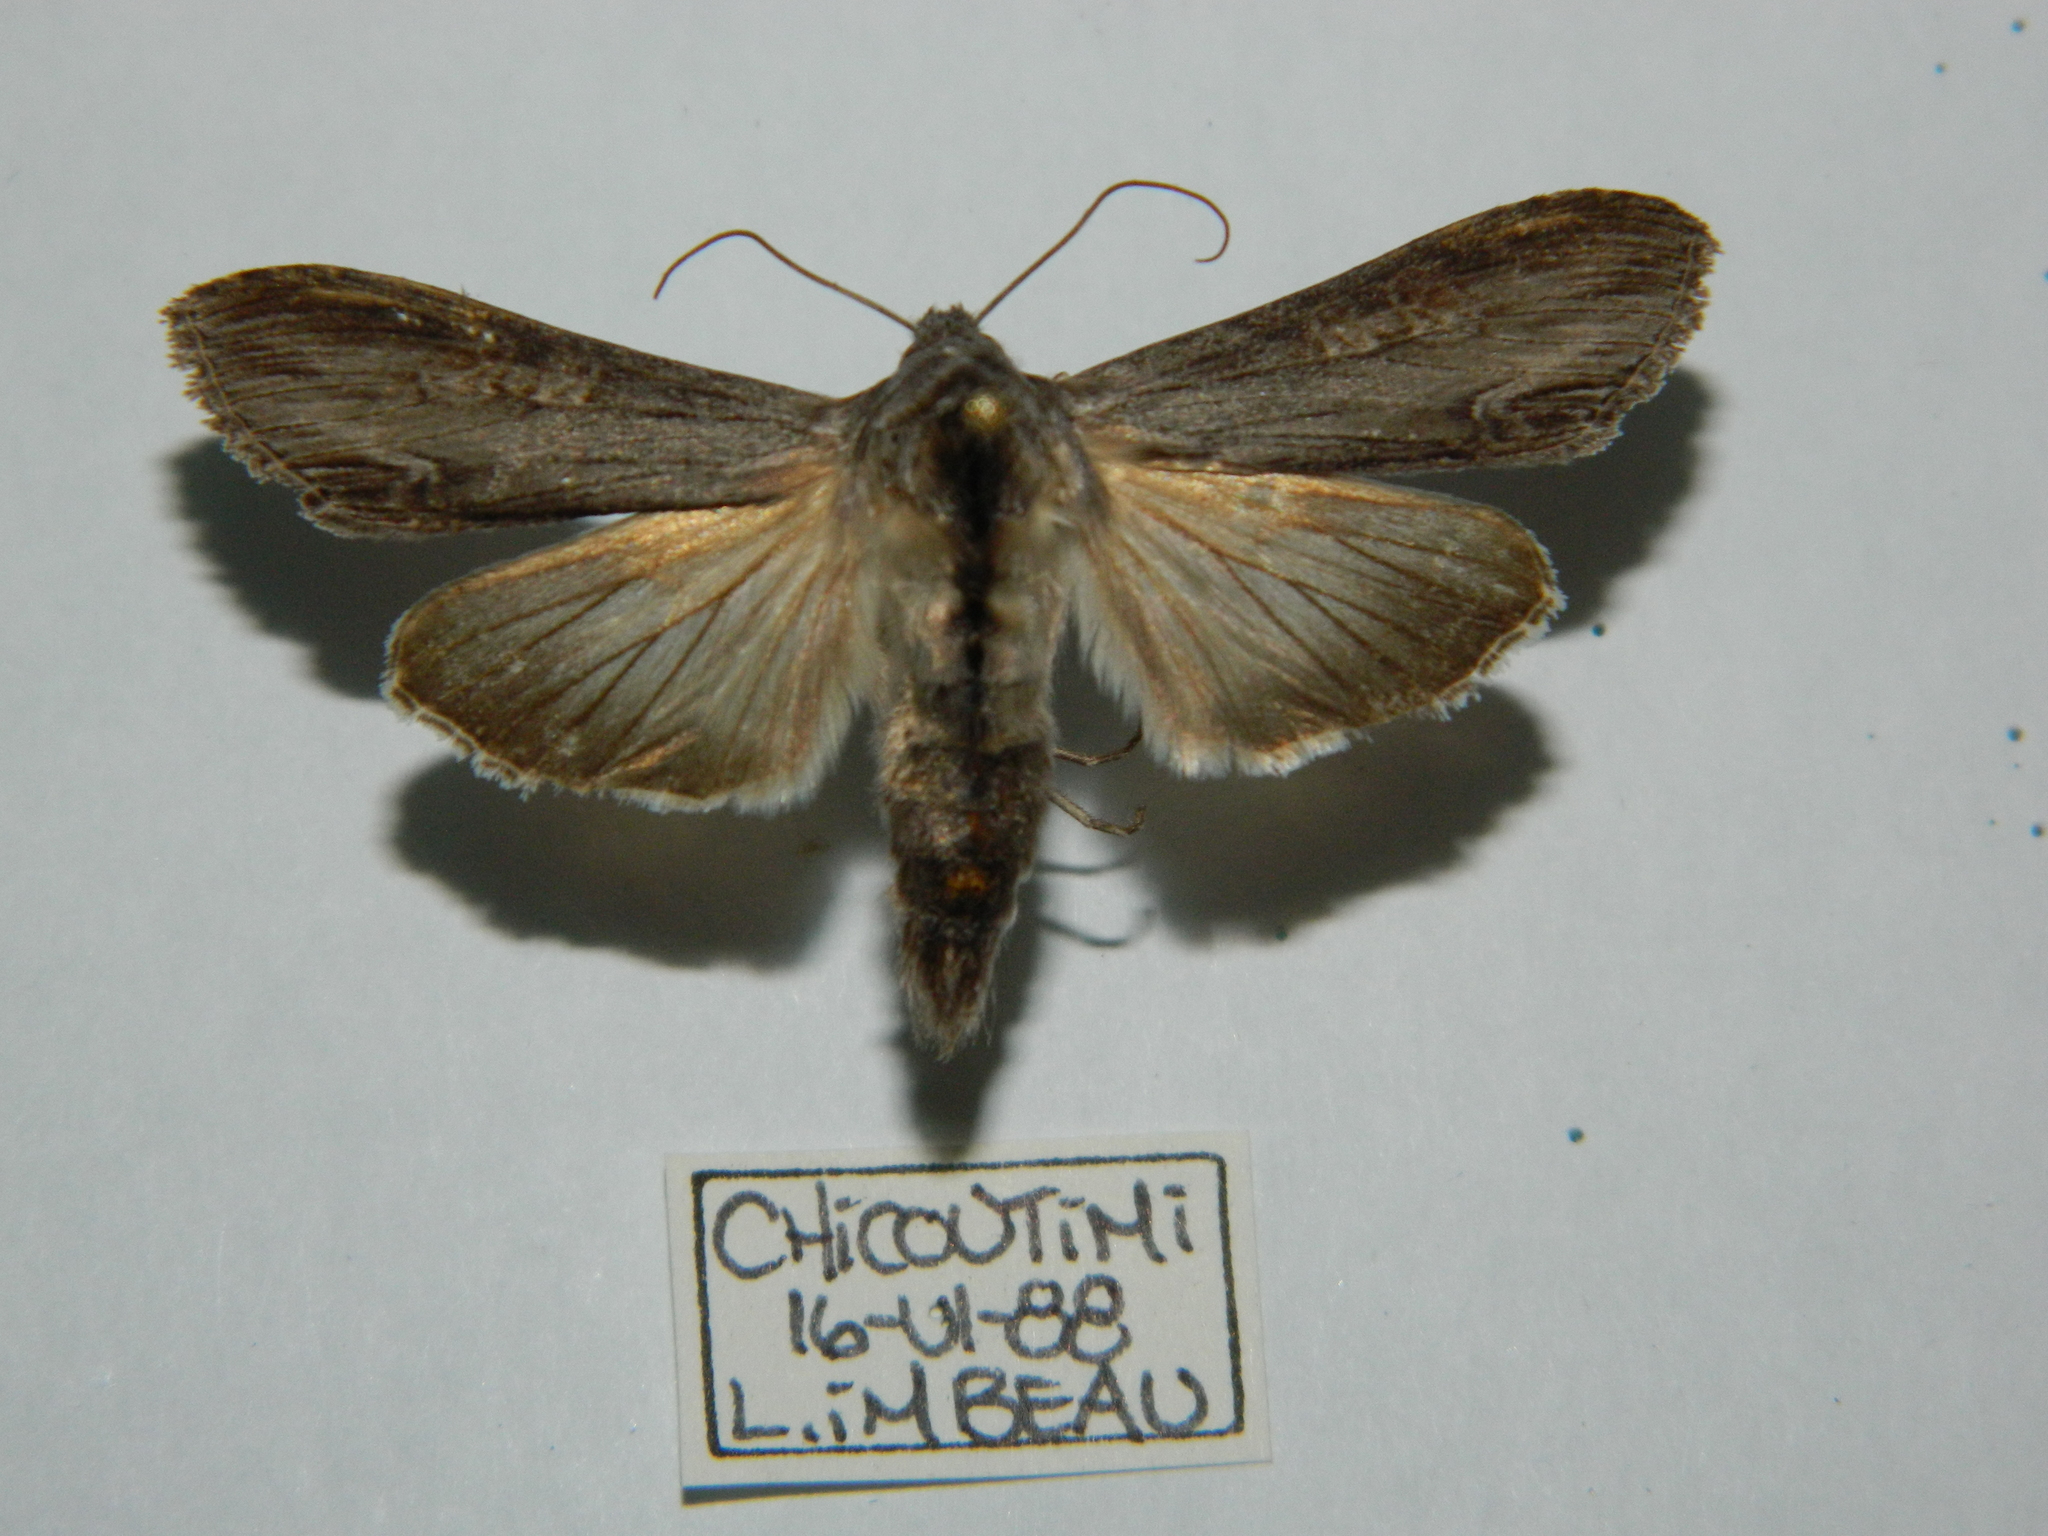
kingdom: Animalia
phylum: Arthropoda
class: Insecta
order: Lepidoptera
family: Noctuidae
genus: Cucullia
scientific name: Cucullia florea
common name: Gray hooded owlet
